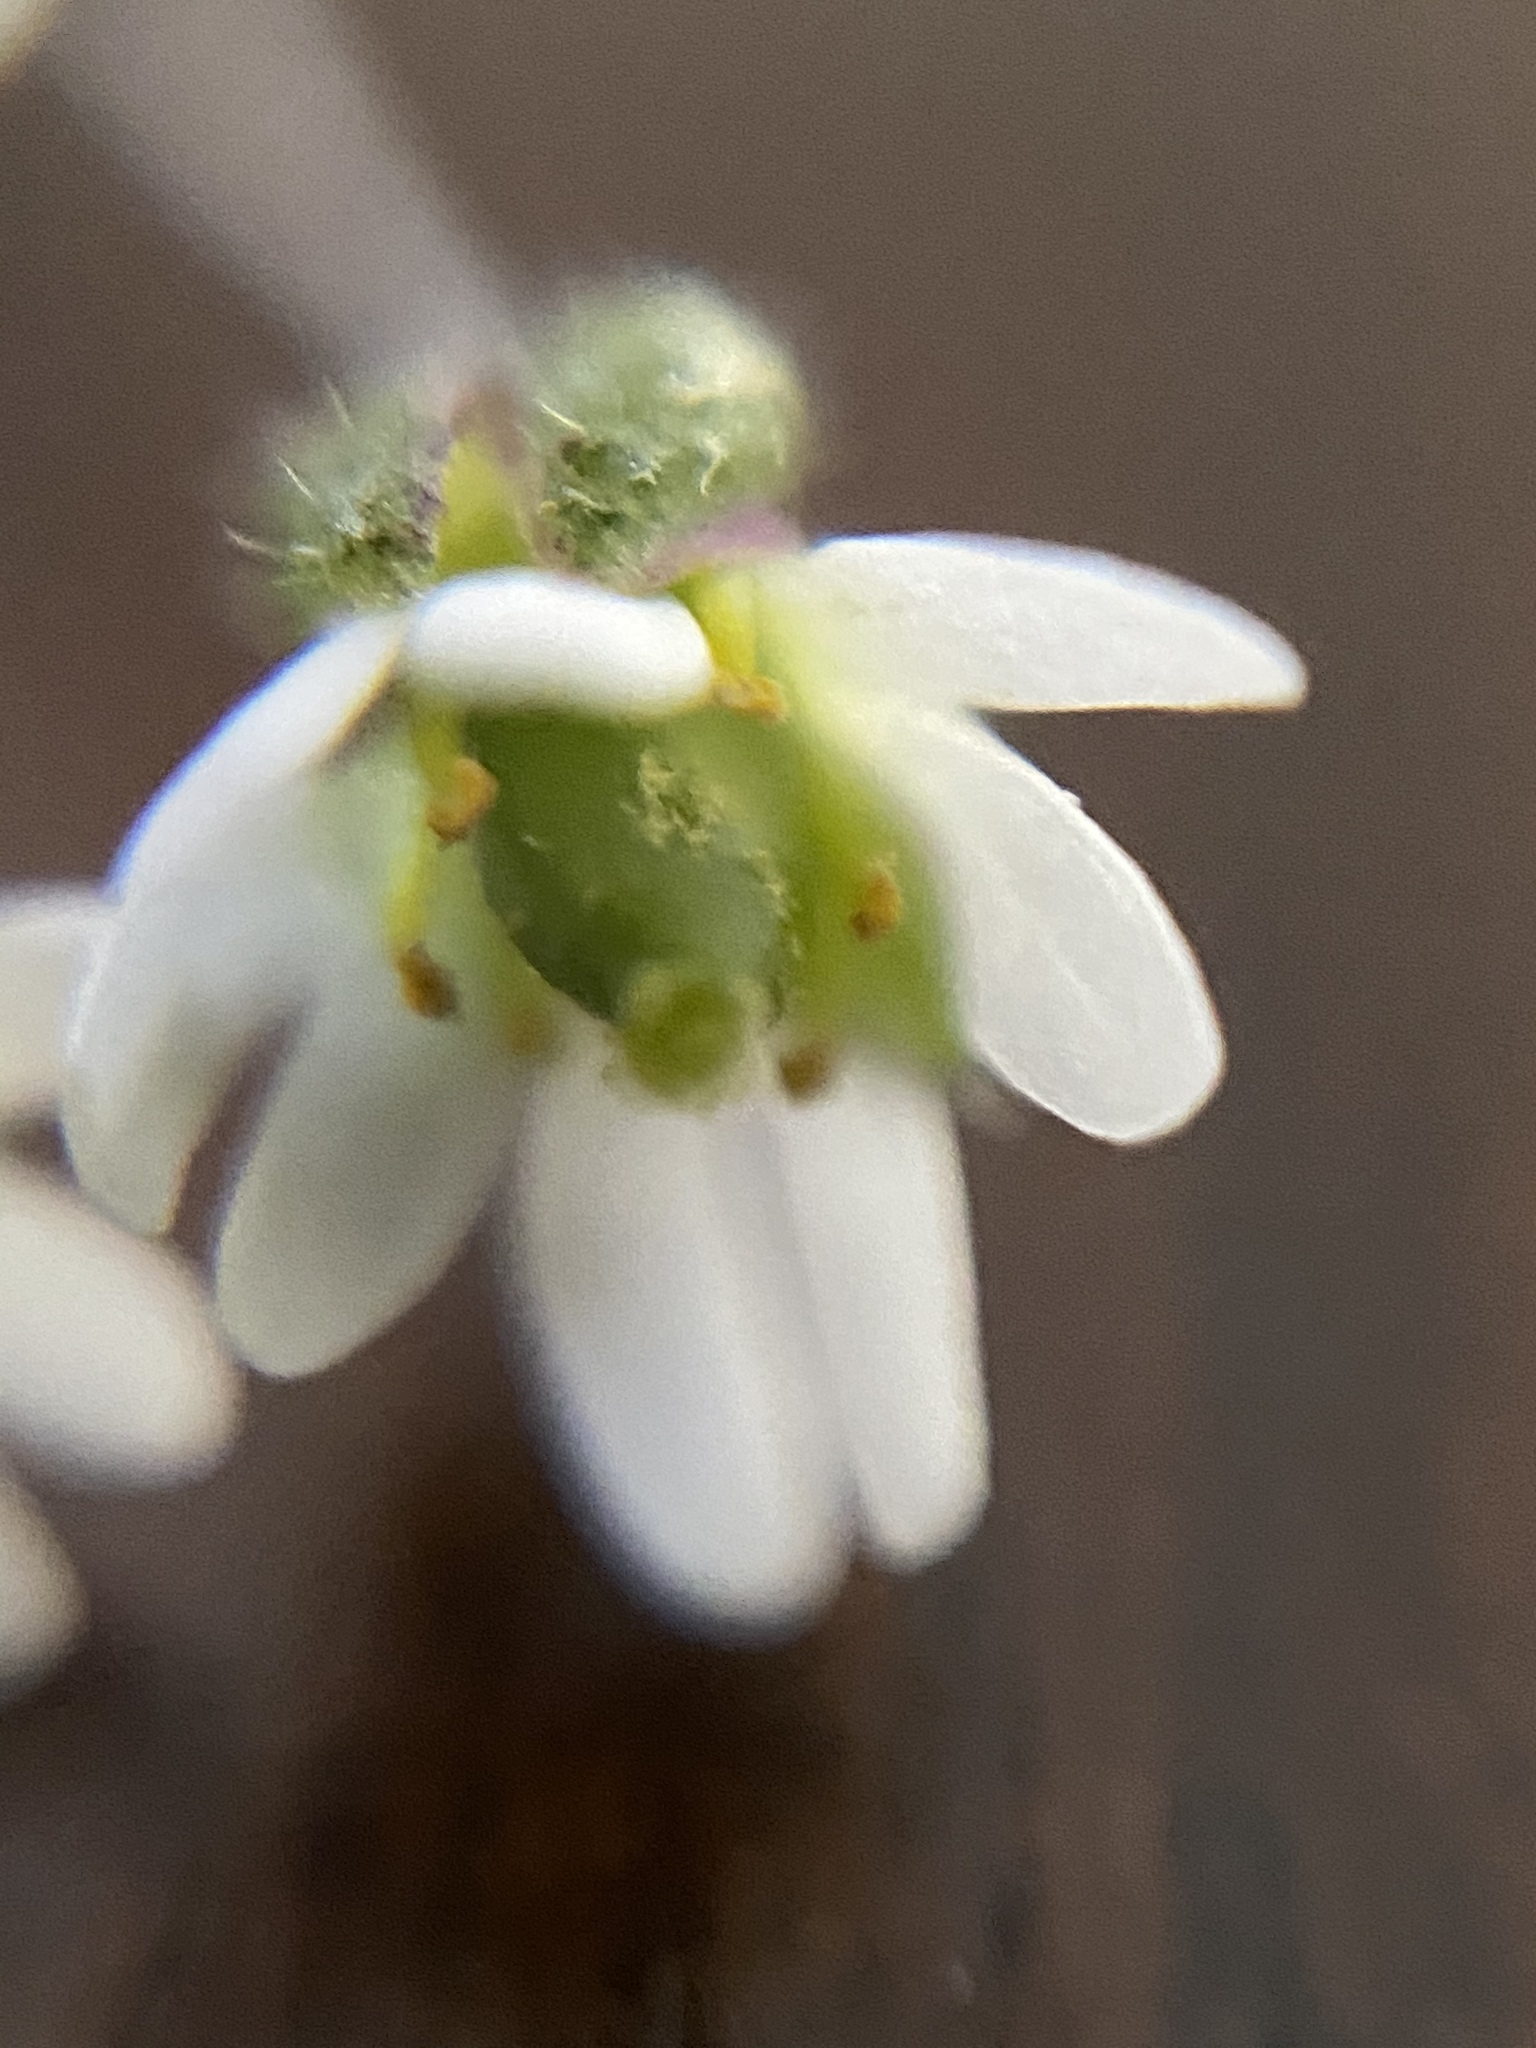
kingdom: Plantae
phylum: Tracheophyta
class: Magnoliopsida
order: Brassicales
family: Brassicaceae
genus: Draba
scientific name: Draba verna
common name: Spring draba
